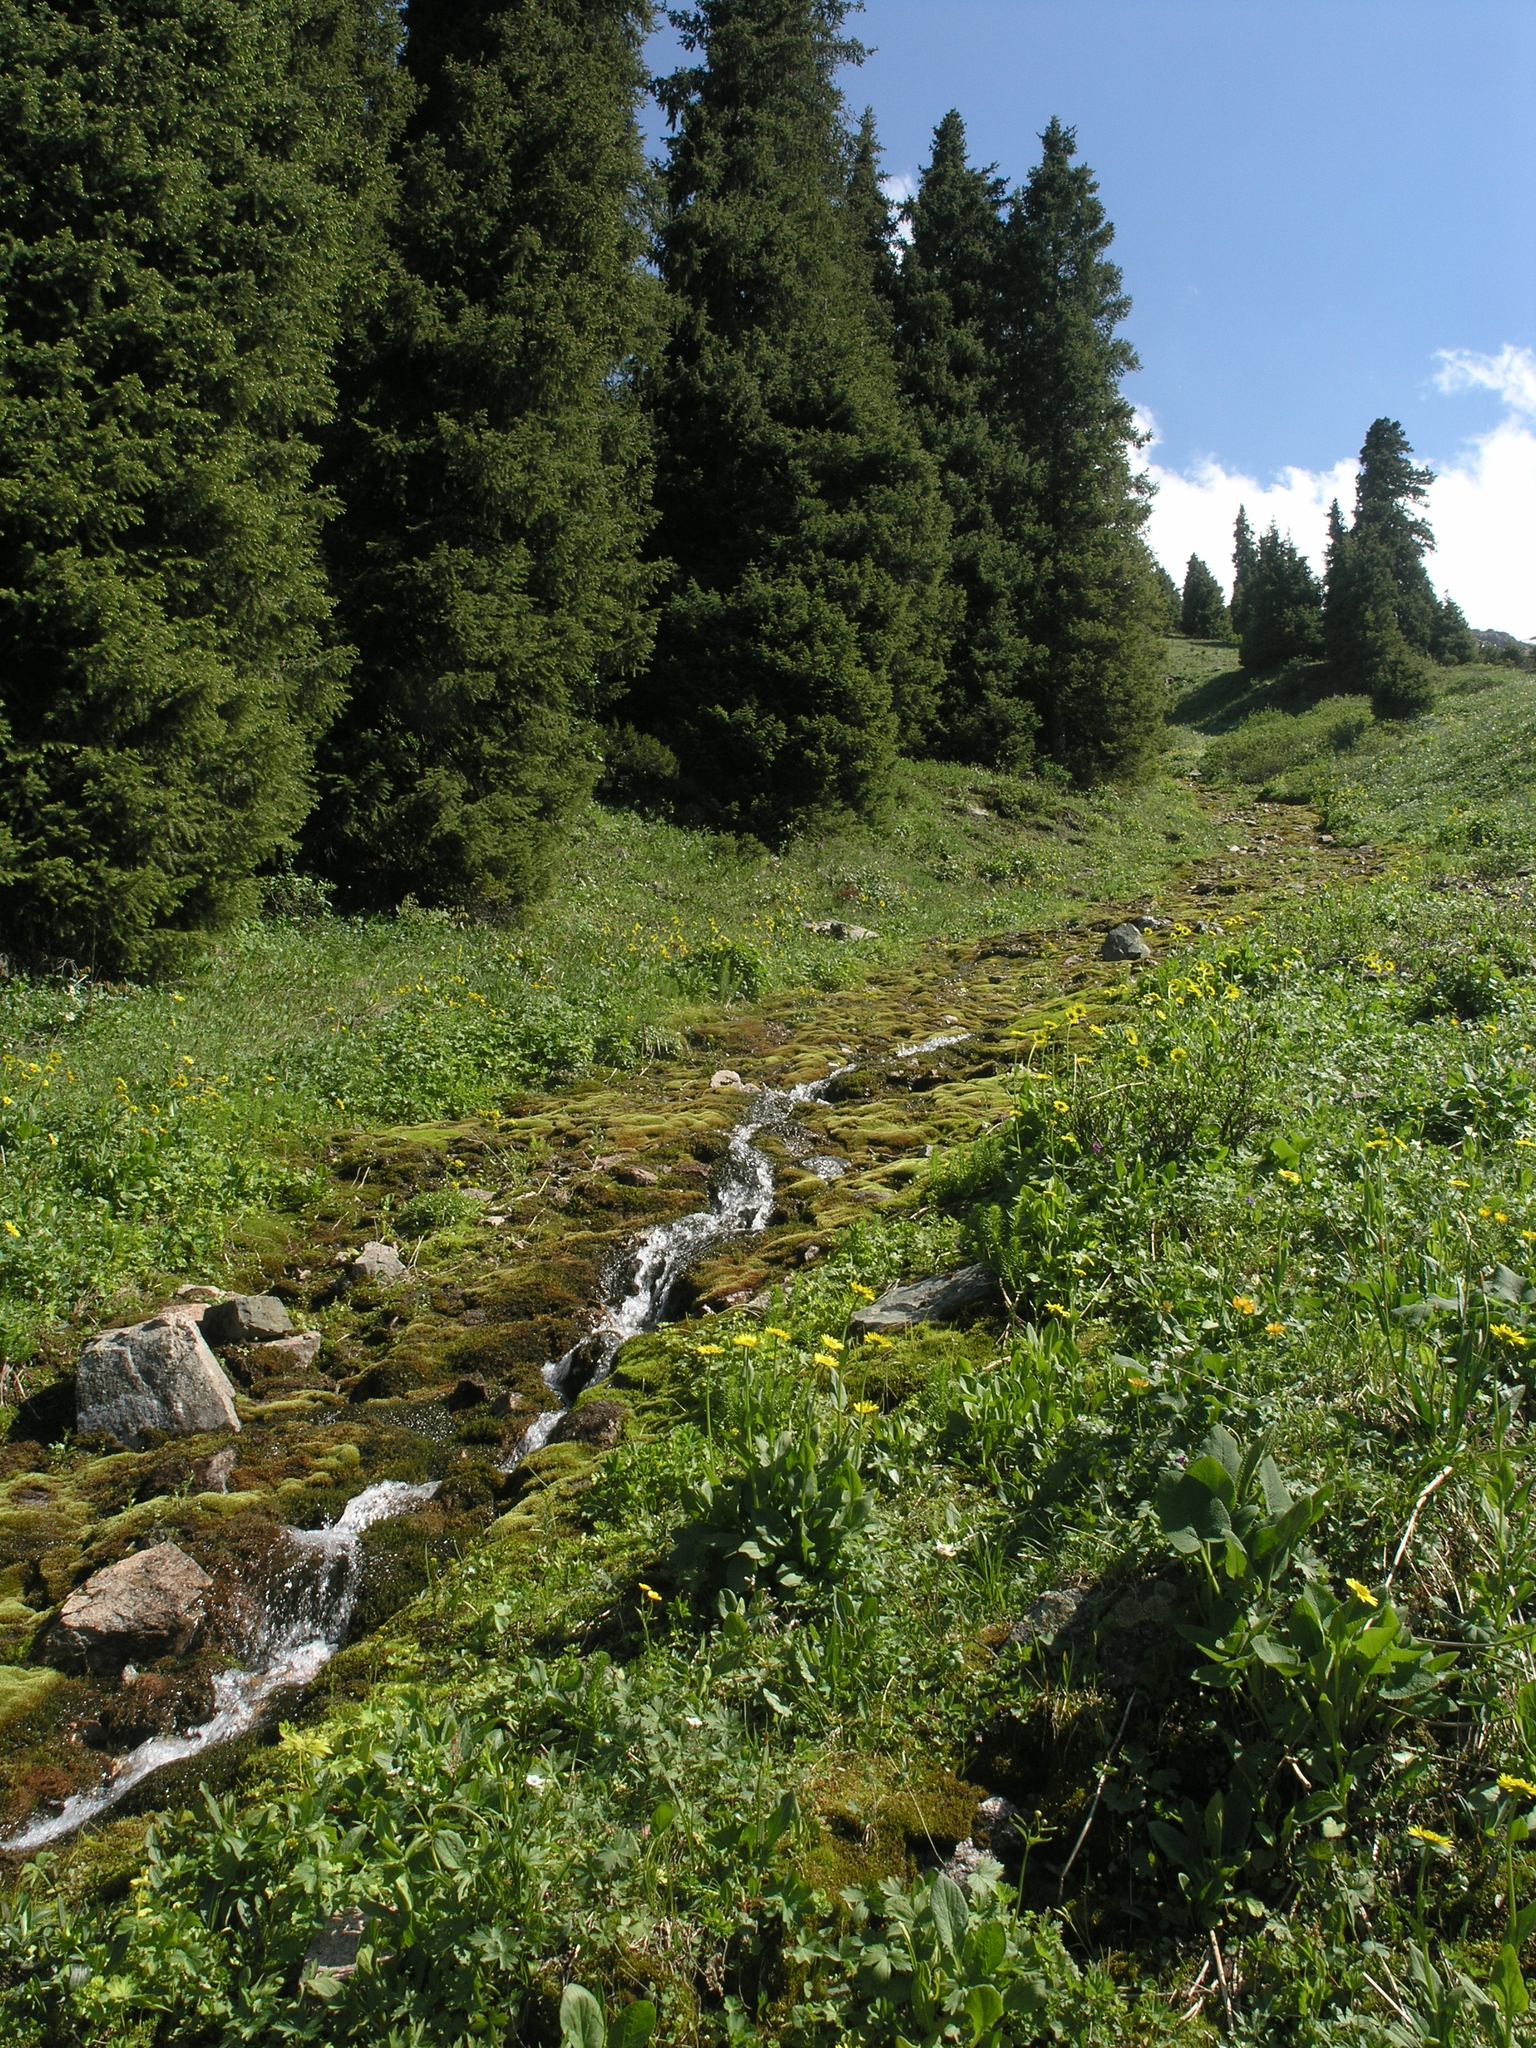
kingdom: Plantae
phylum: Tracheophyta
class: Pinopsida
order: Pinales
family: Pinaceae
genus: Picea
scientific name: Picea schrenkiana
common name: Asian spruce
